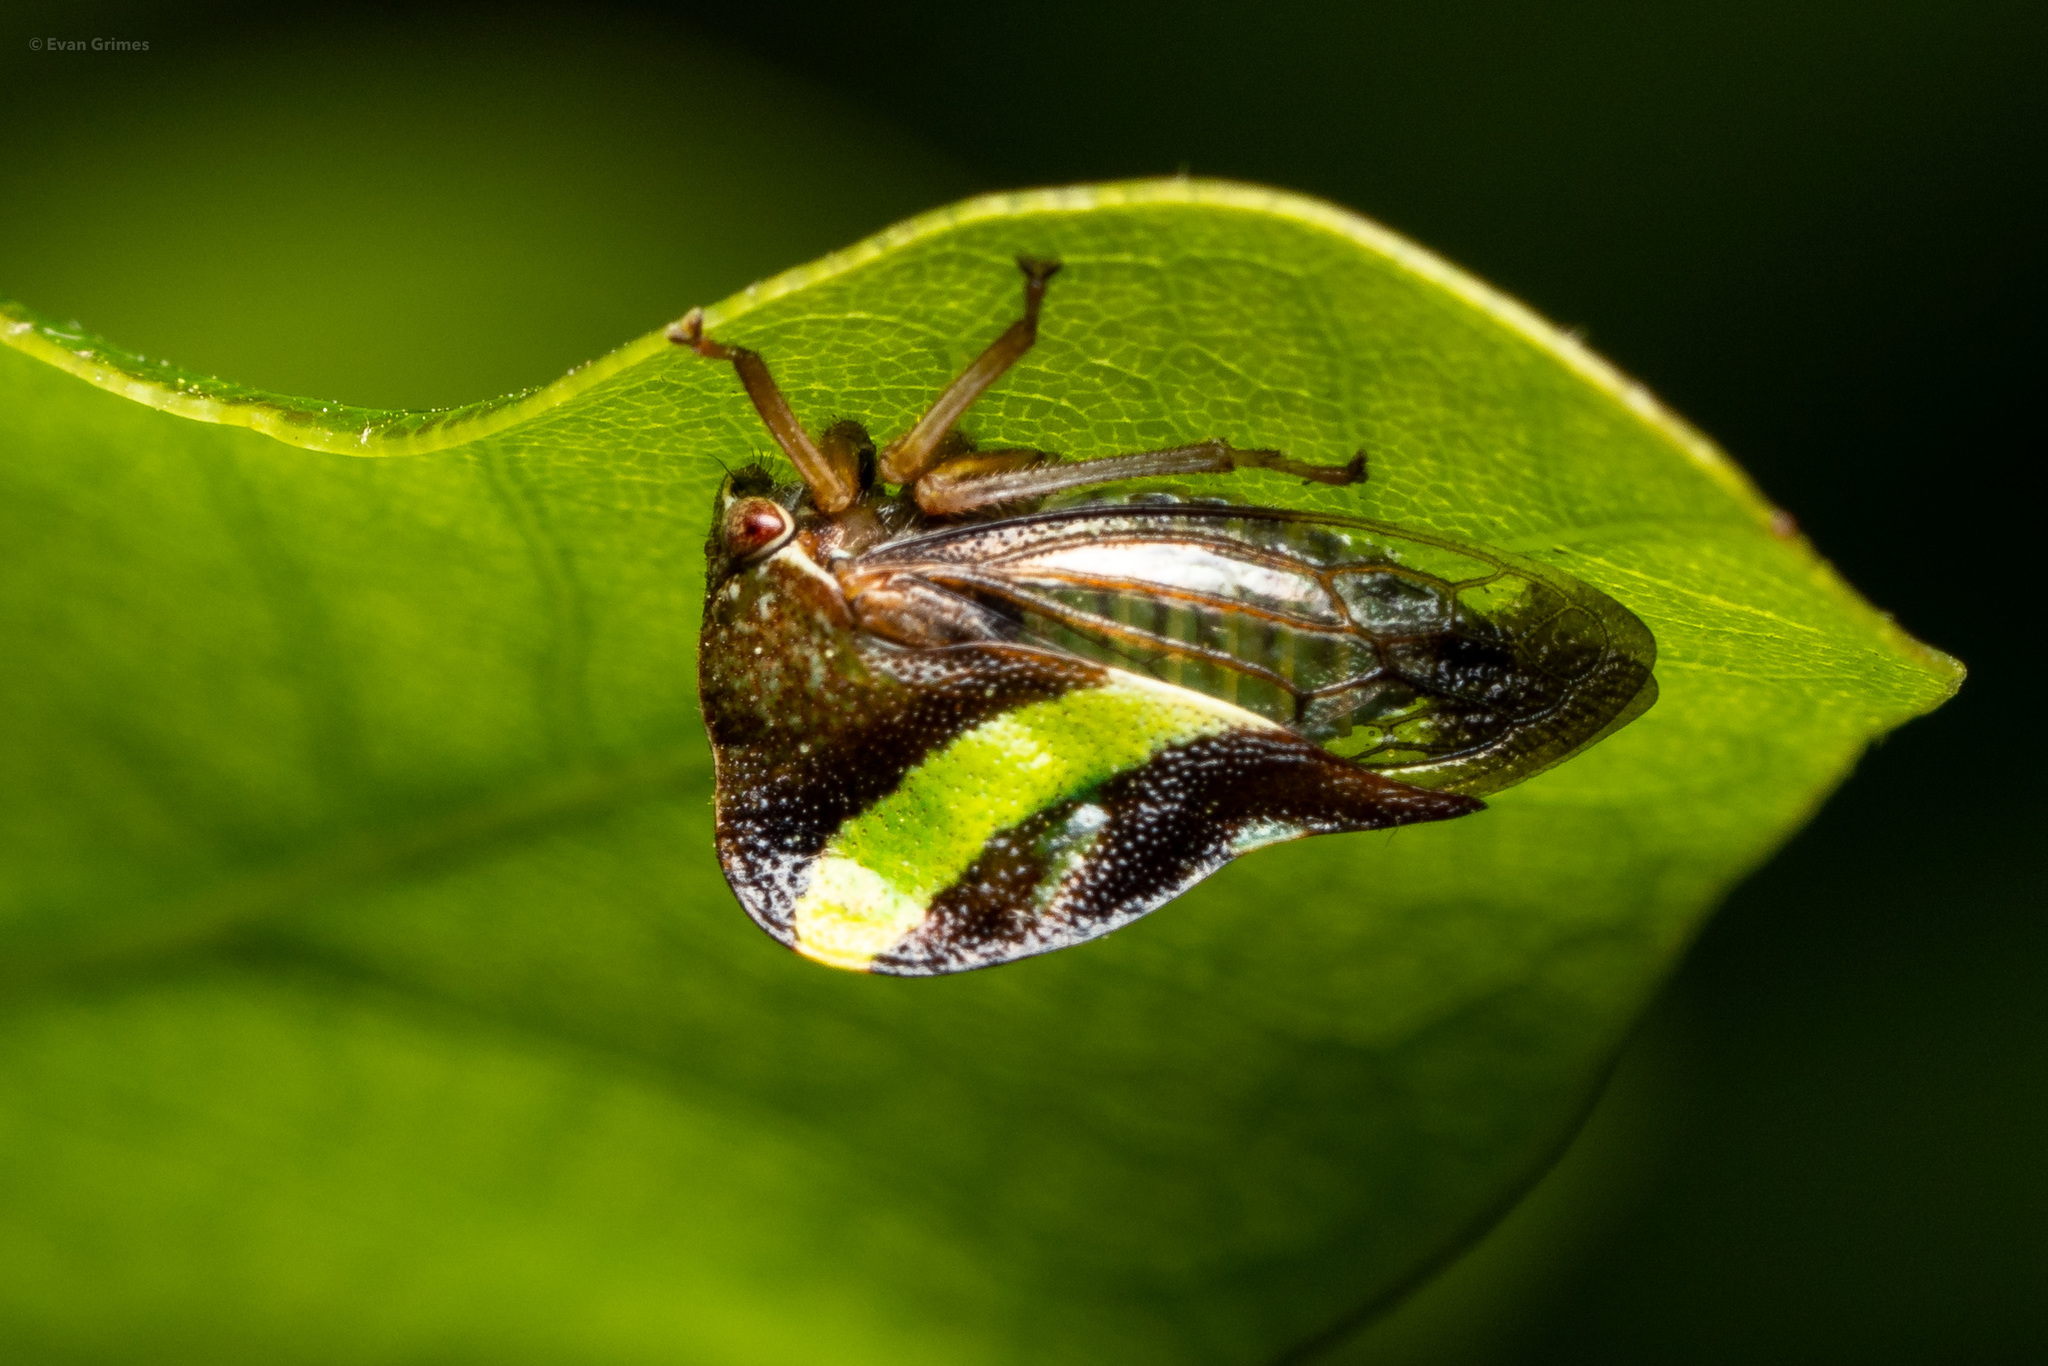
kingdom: Animalia
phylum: Arthropoda
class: Insecta
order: Hemiptera
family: Membracidae
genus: Smilia
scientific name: Smilia camelus
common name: Camel treehopper
